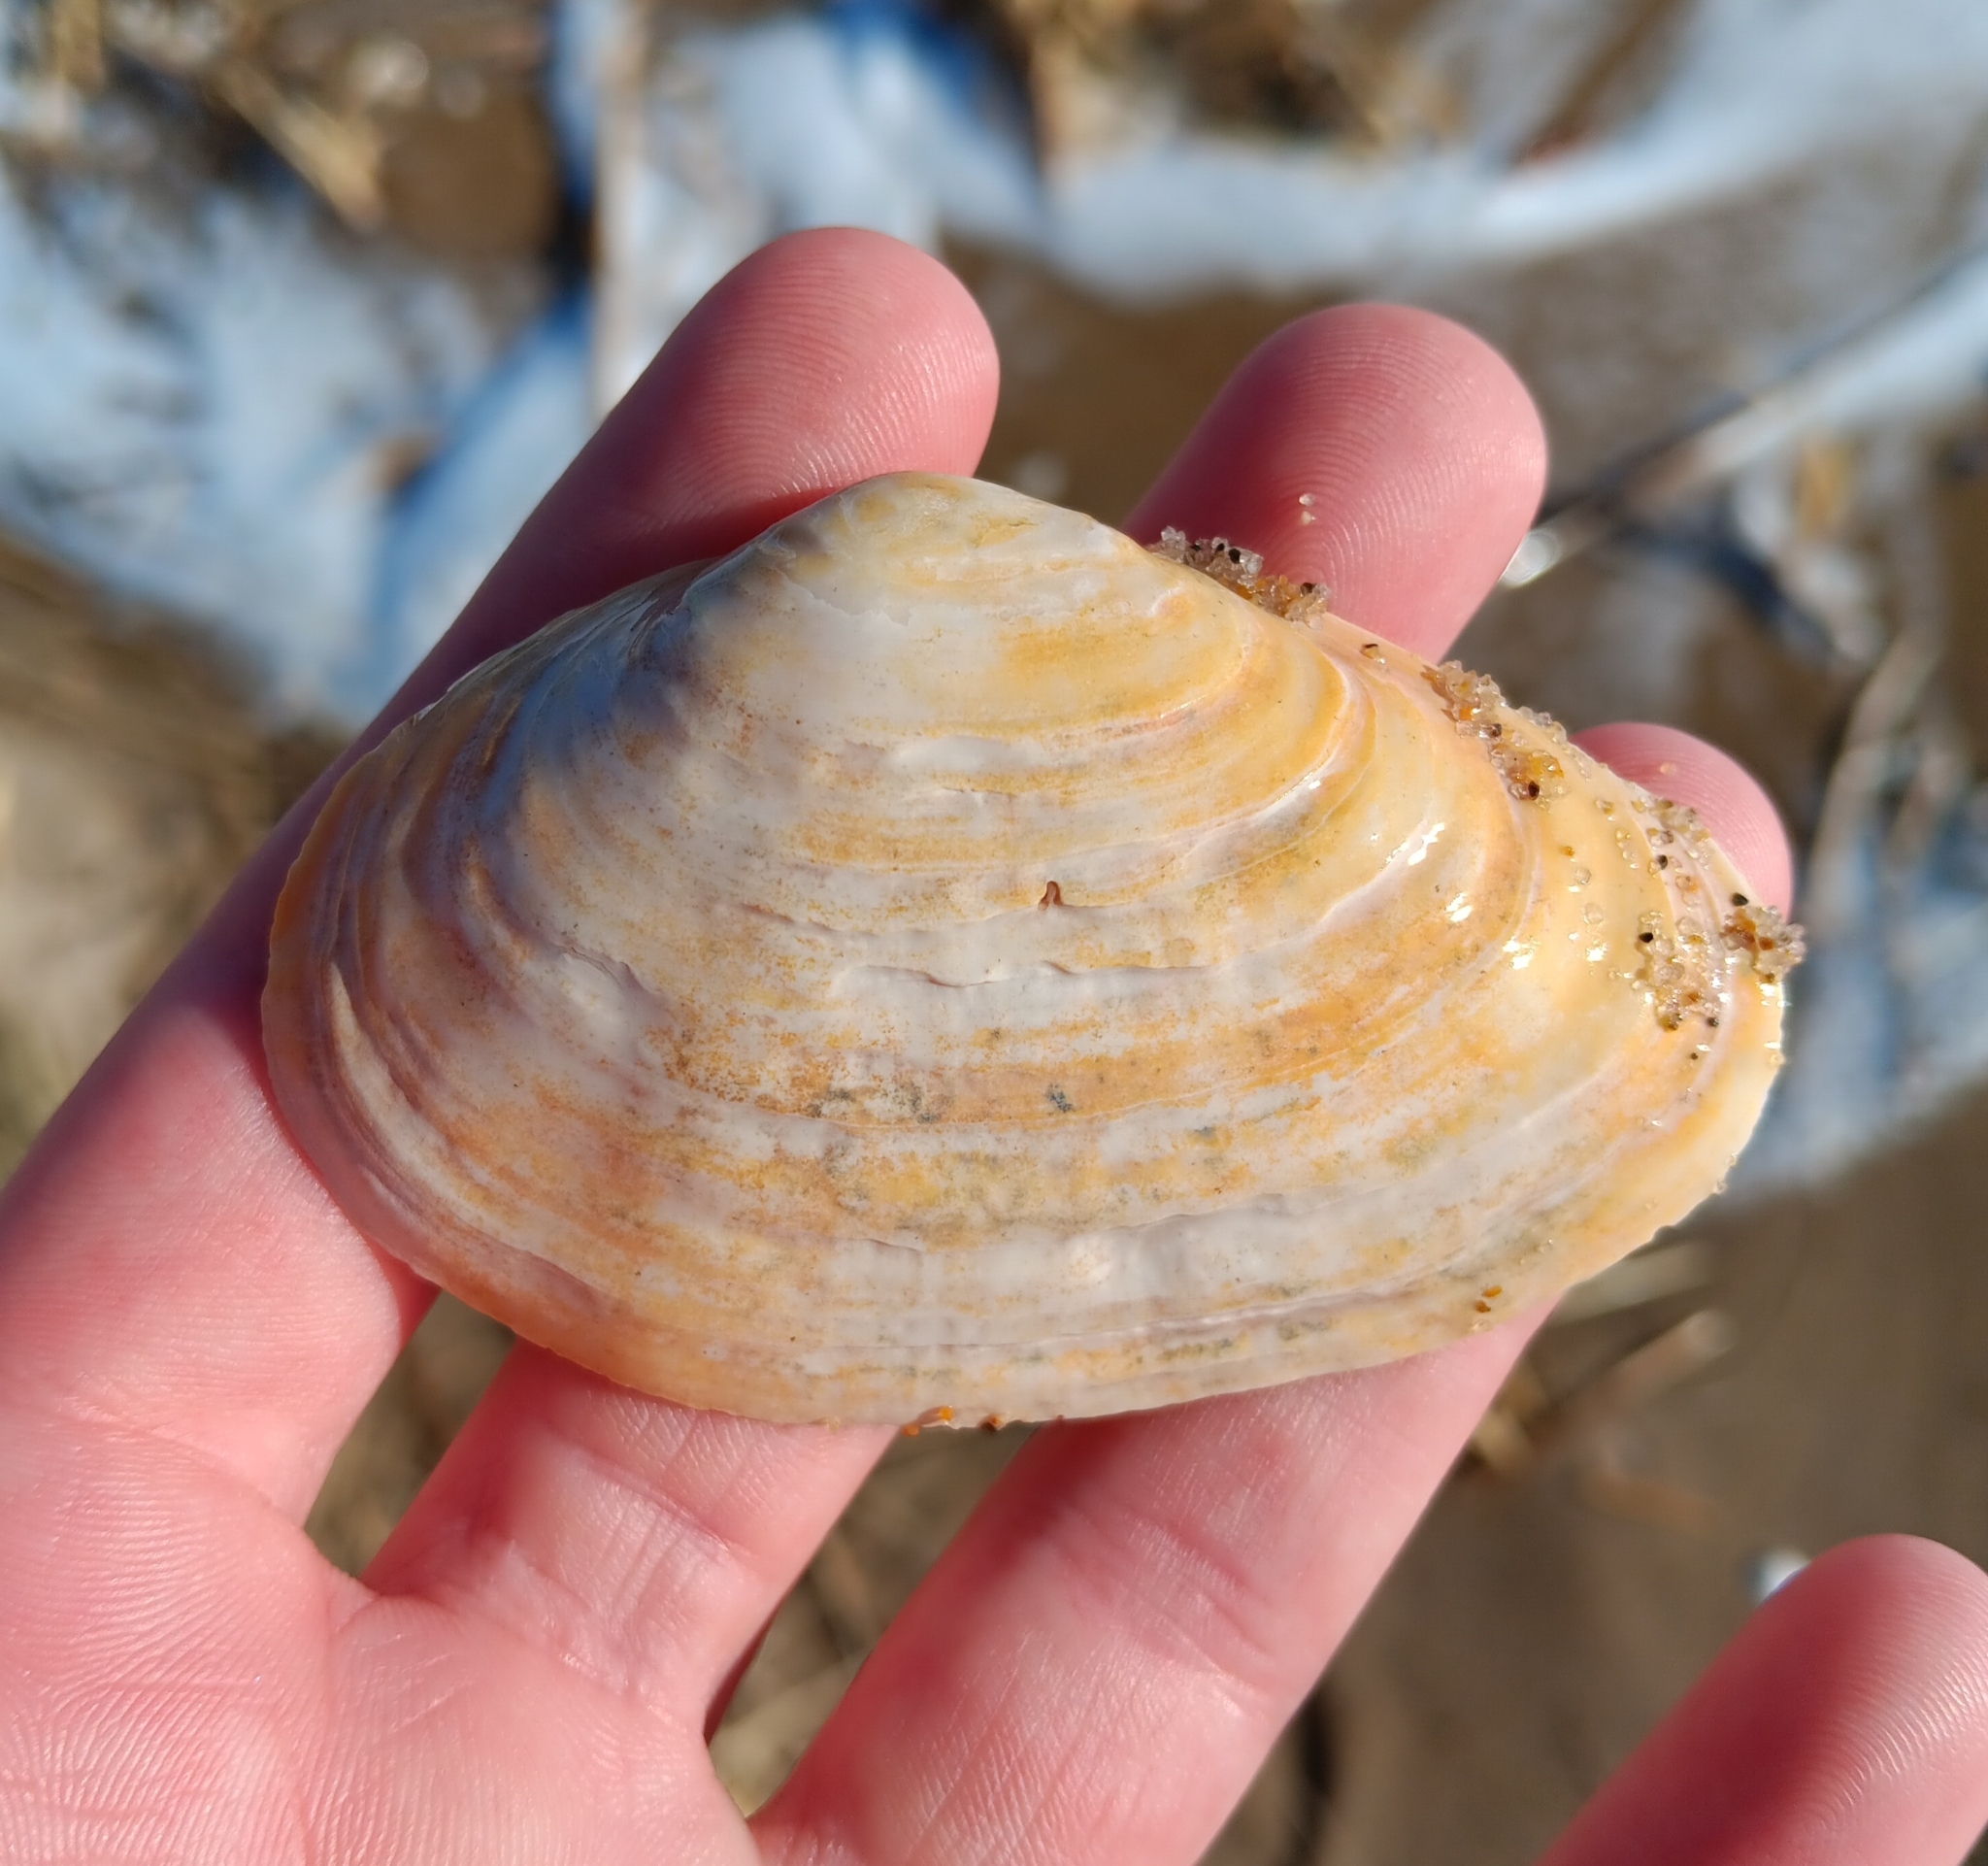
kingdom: Animalia
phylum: Mollusca
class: Bivalvia
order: Myida
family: Myidae
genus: Mya
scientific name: Mya arenaria
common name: Soft-shelled clam
